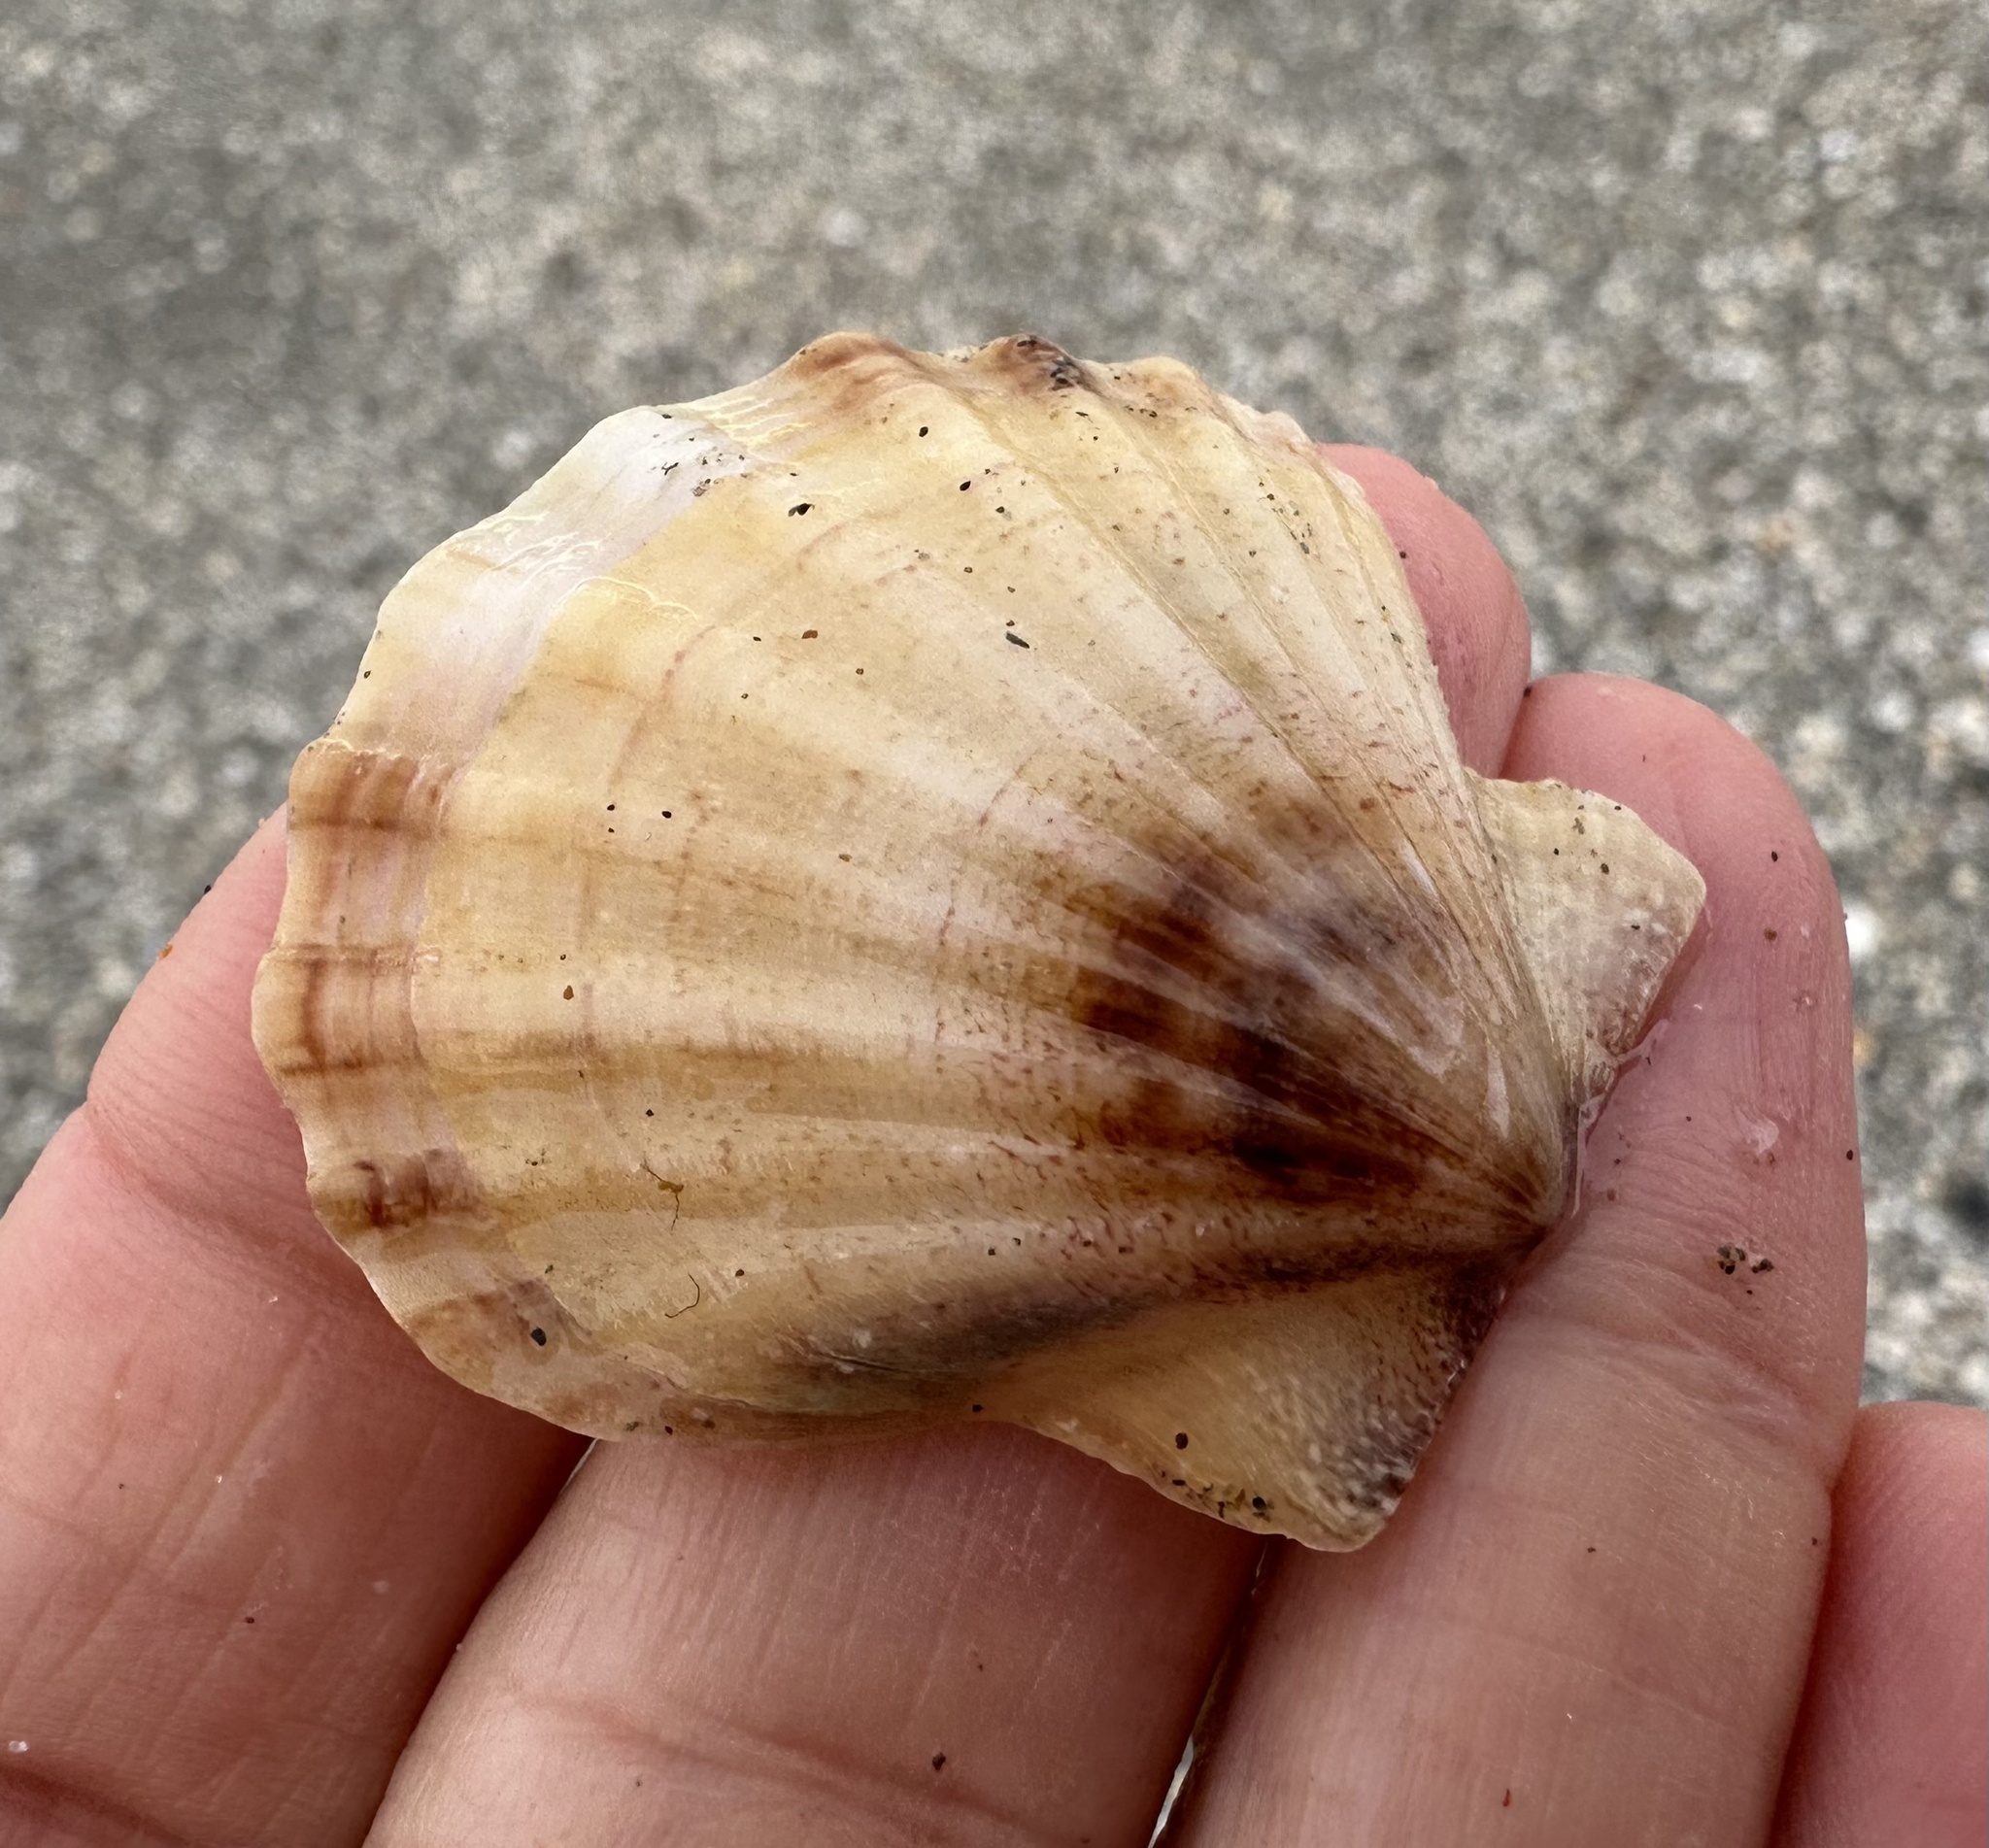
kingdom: Animalia
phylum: Mollusca
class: Bivalvia
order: Pectinida
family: Pectinidae
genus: Flexopecten
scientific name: Flexopecten glaber
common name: Smooth scallop
